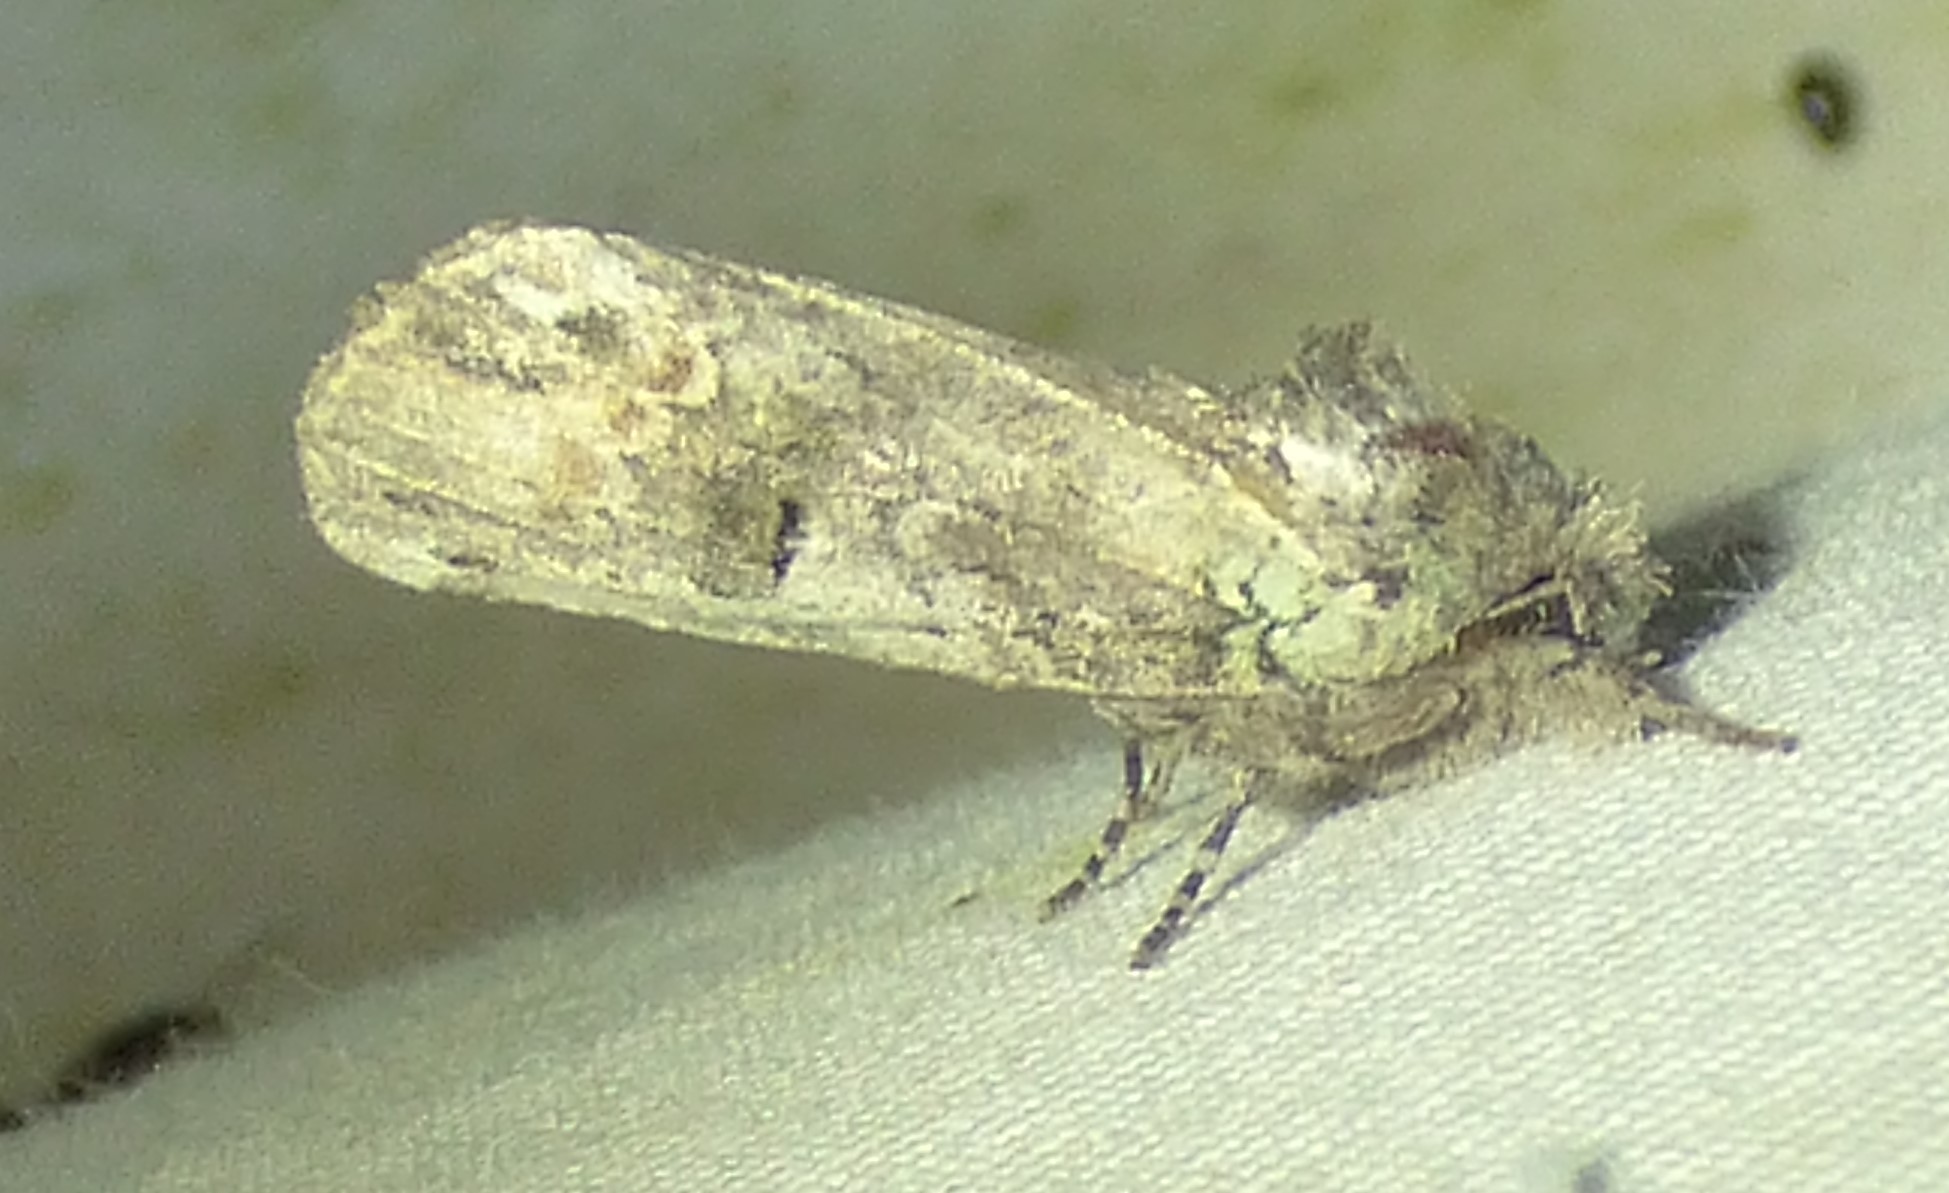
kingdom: Animalia
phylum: Arthropoda
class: Insecta
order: Lepidoptera
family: Notodontidae
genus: Schizura
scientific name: Schizura
